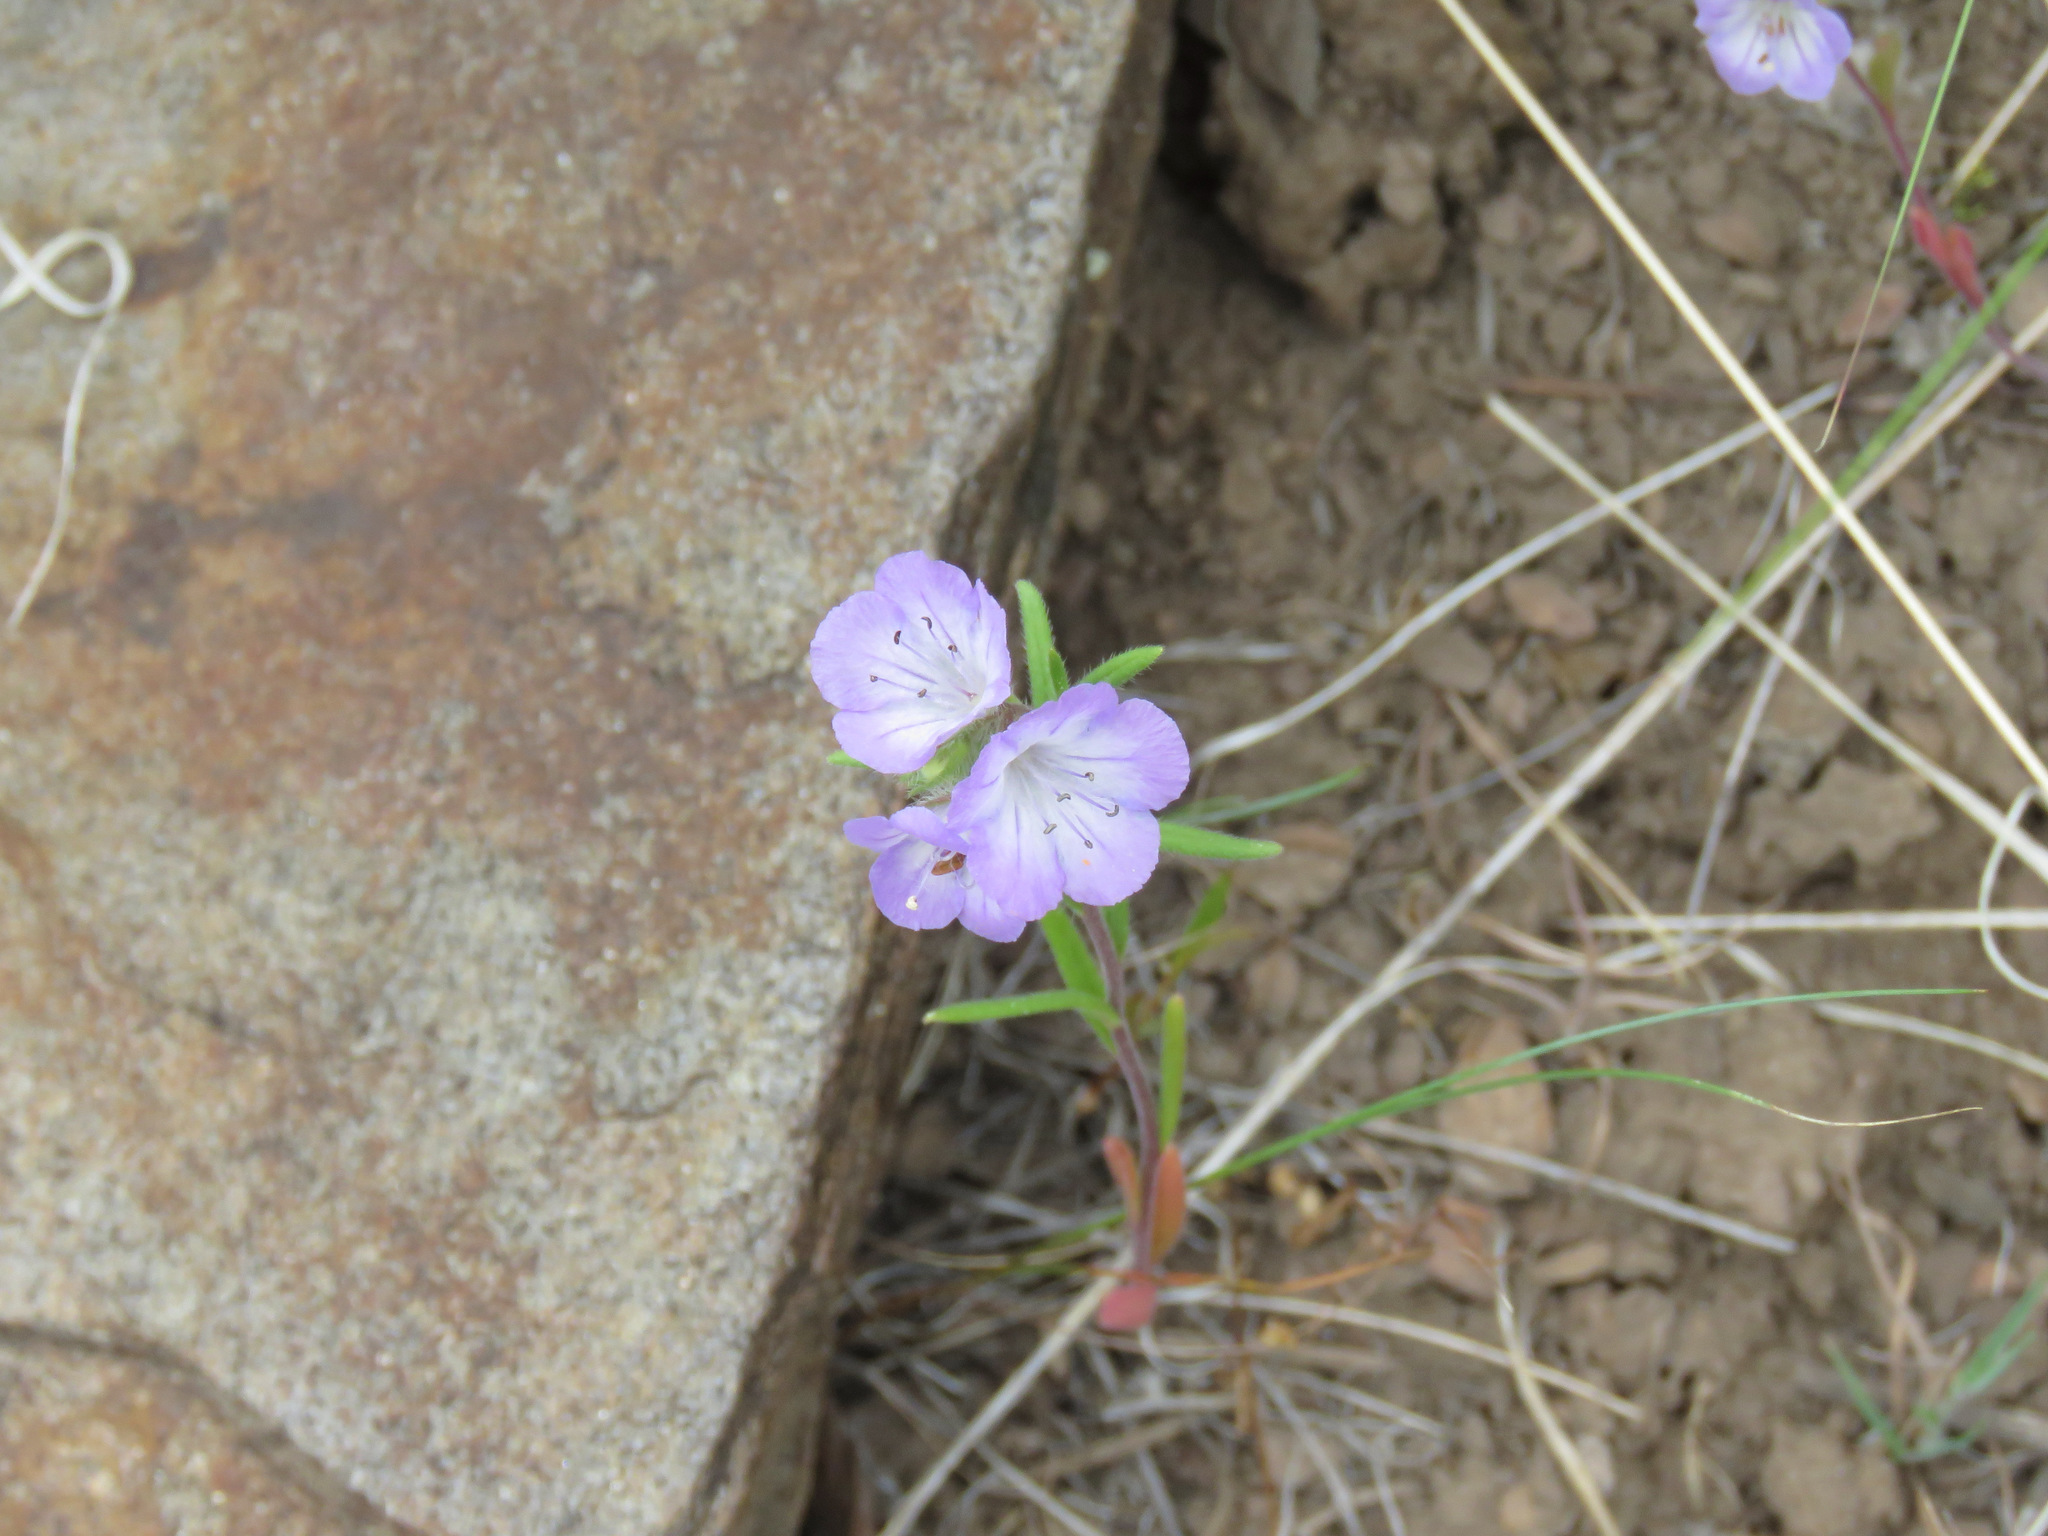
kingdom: Plantae
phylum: Tracheophyta
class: Magnoliopsida
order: Boraginales
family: Hydrophyllaceae
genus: Phacelia
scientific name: Phacelia linearis
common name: Linear-leaved phacelia
